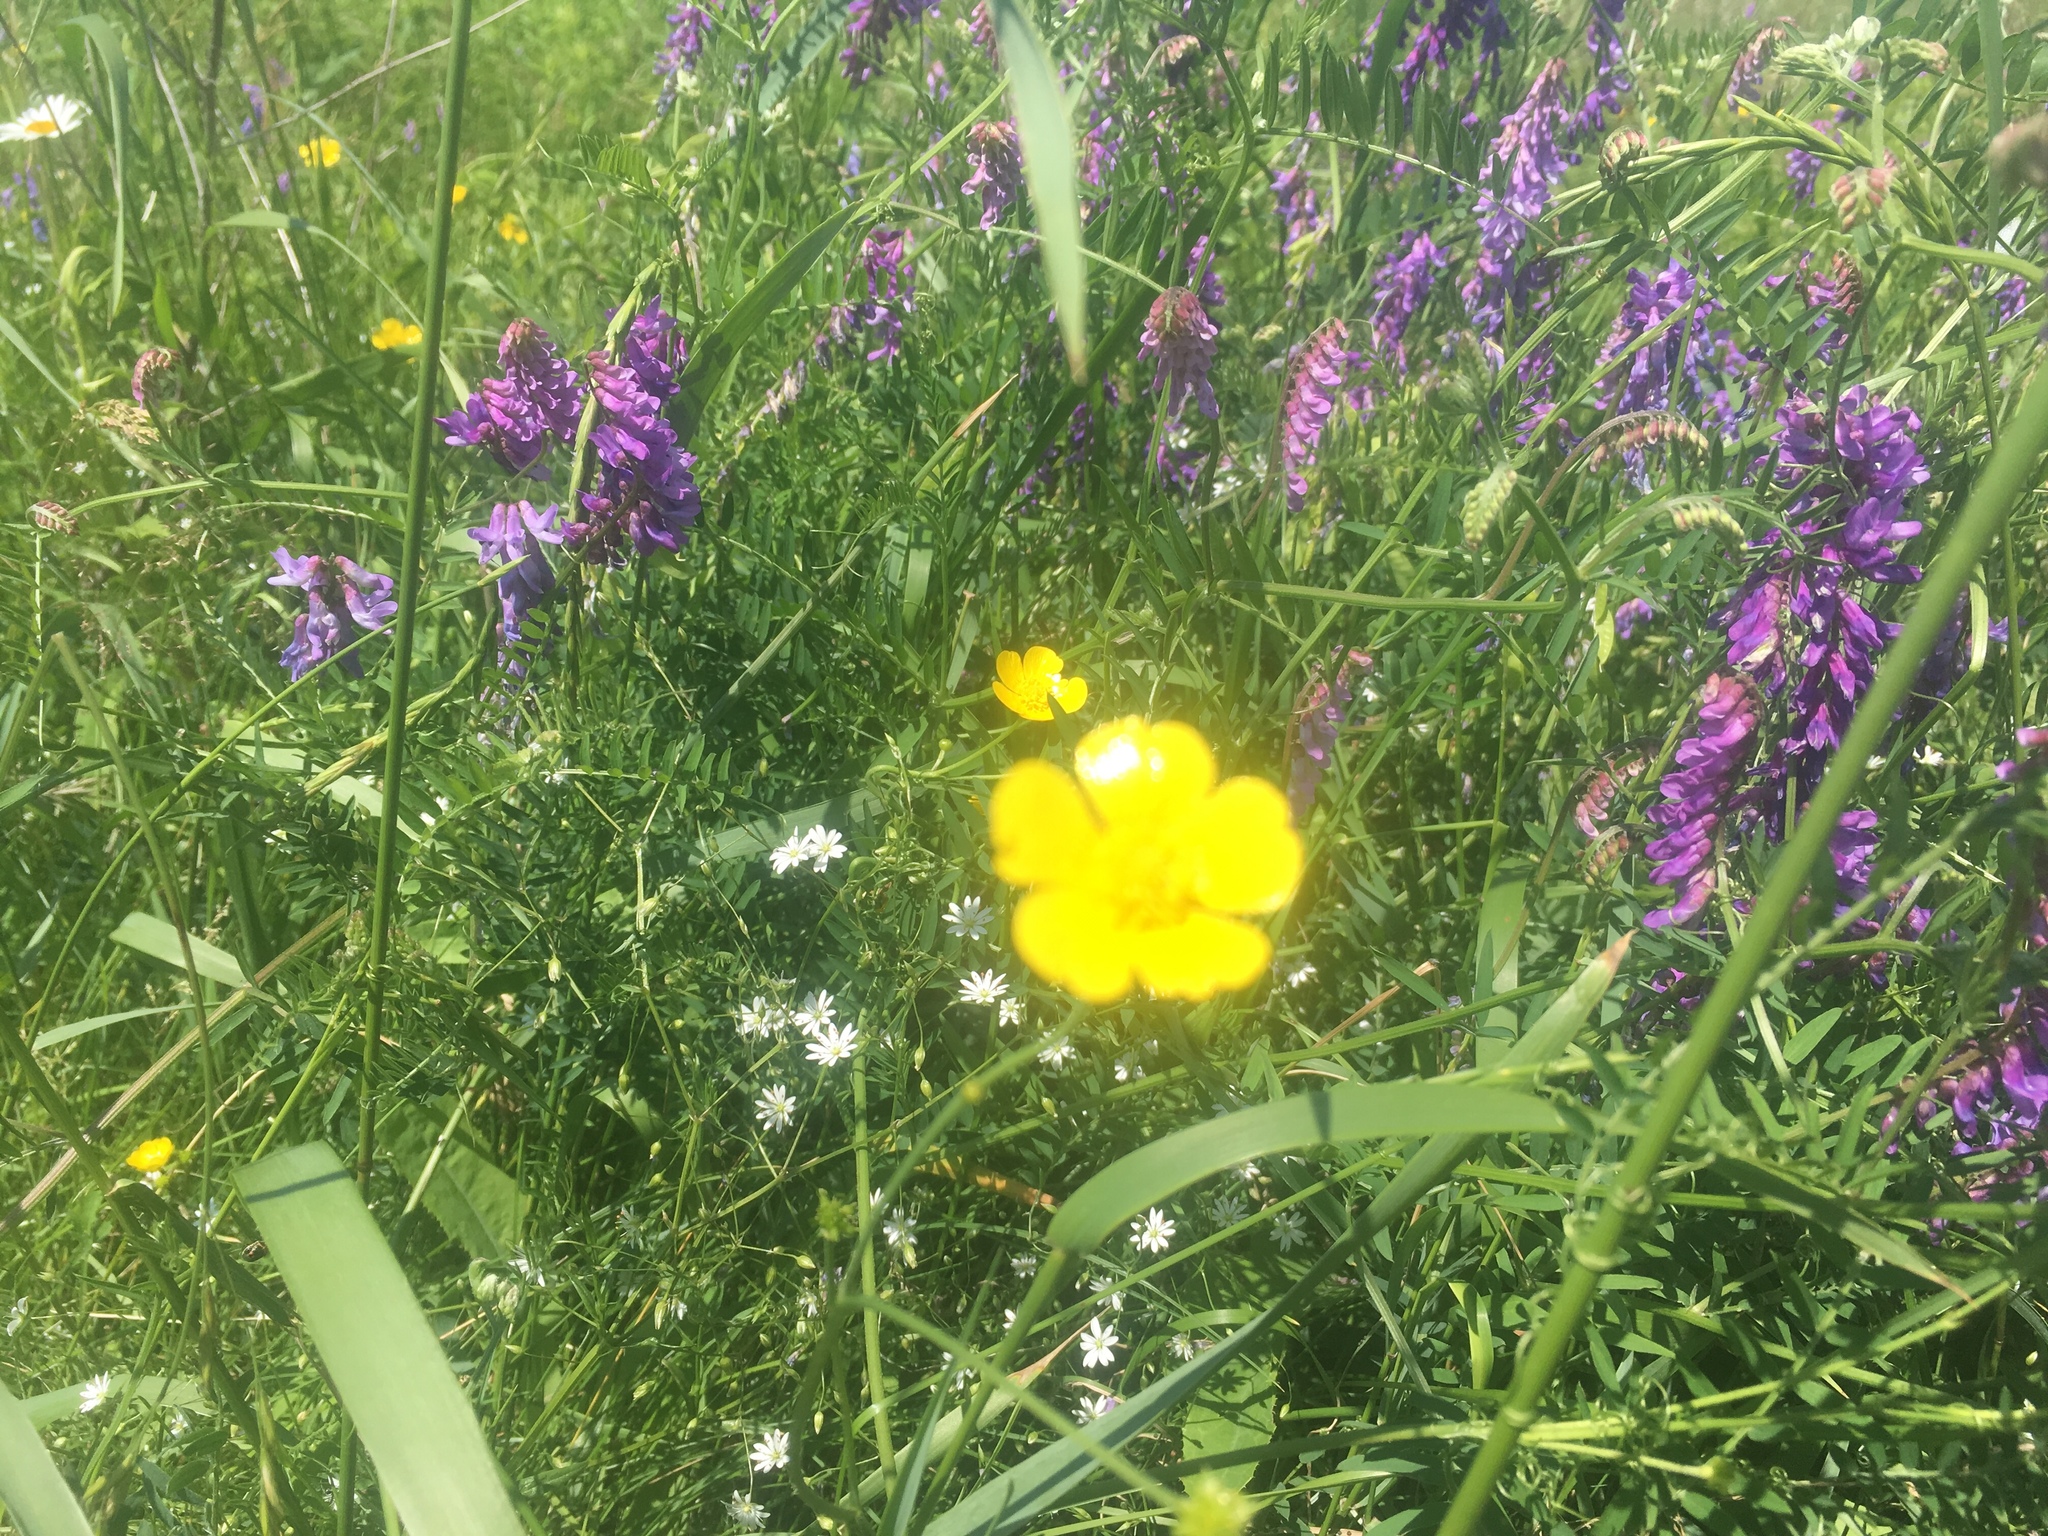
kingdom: Plantae
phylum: Tracheophyta
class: Magnoliopsida
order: Ranunculales
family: Ranunculaceae
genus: Ranunculus
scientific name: Ranunculus acris
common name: Meadow buttercup
